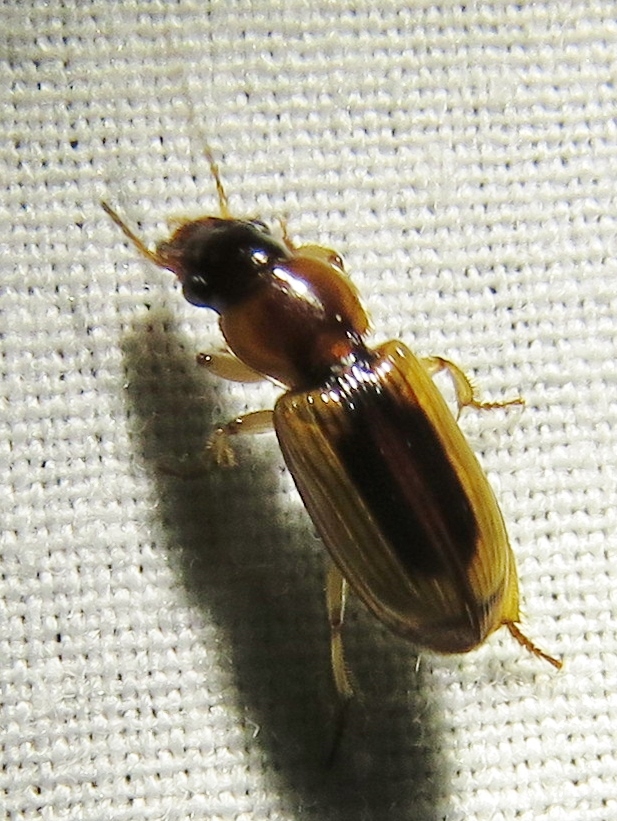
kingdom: Animalia
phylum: Arthropoda
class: Insecta
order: Coleoptera
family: Carabidae
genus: Stenolophus
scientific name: Stenolophus lecontei
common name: Leconte's seedcorn beetle
